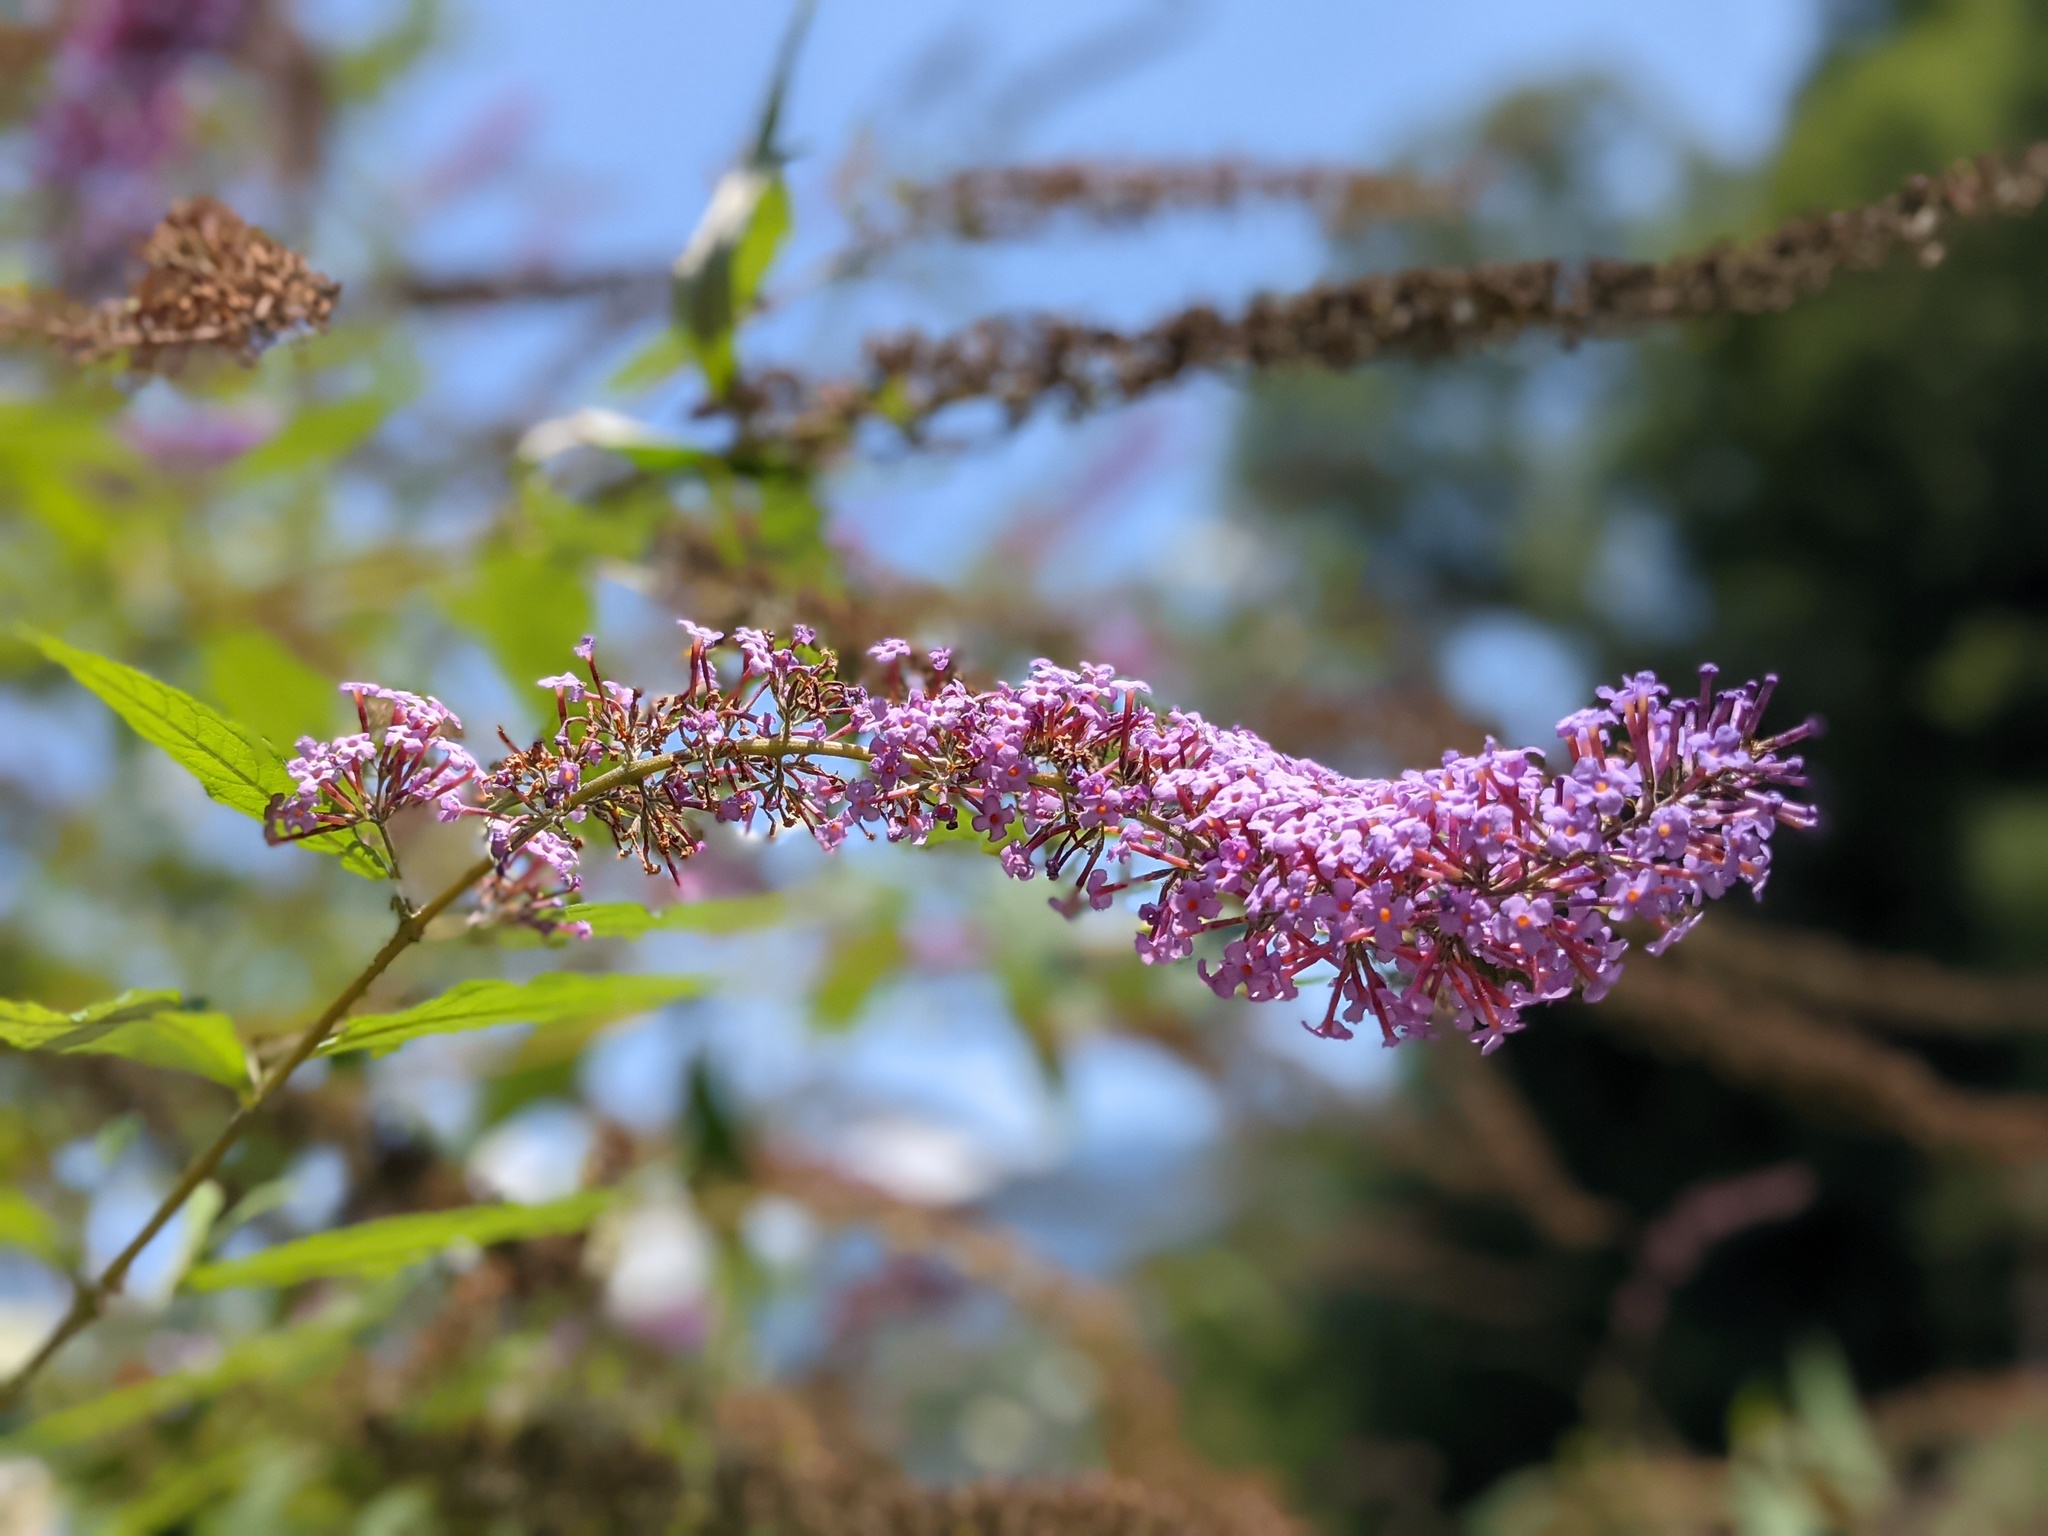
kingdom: Plantae
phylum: Tracheophyta
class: Magnoliopsida
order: Lamiales
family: Scrophulariaceae
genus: Buddleja
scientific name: Buddleja davidii
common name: Butterfly-bush
